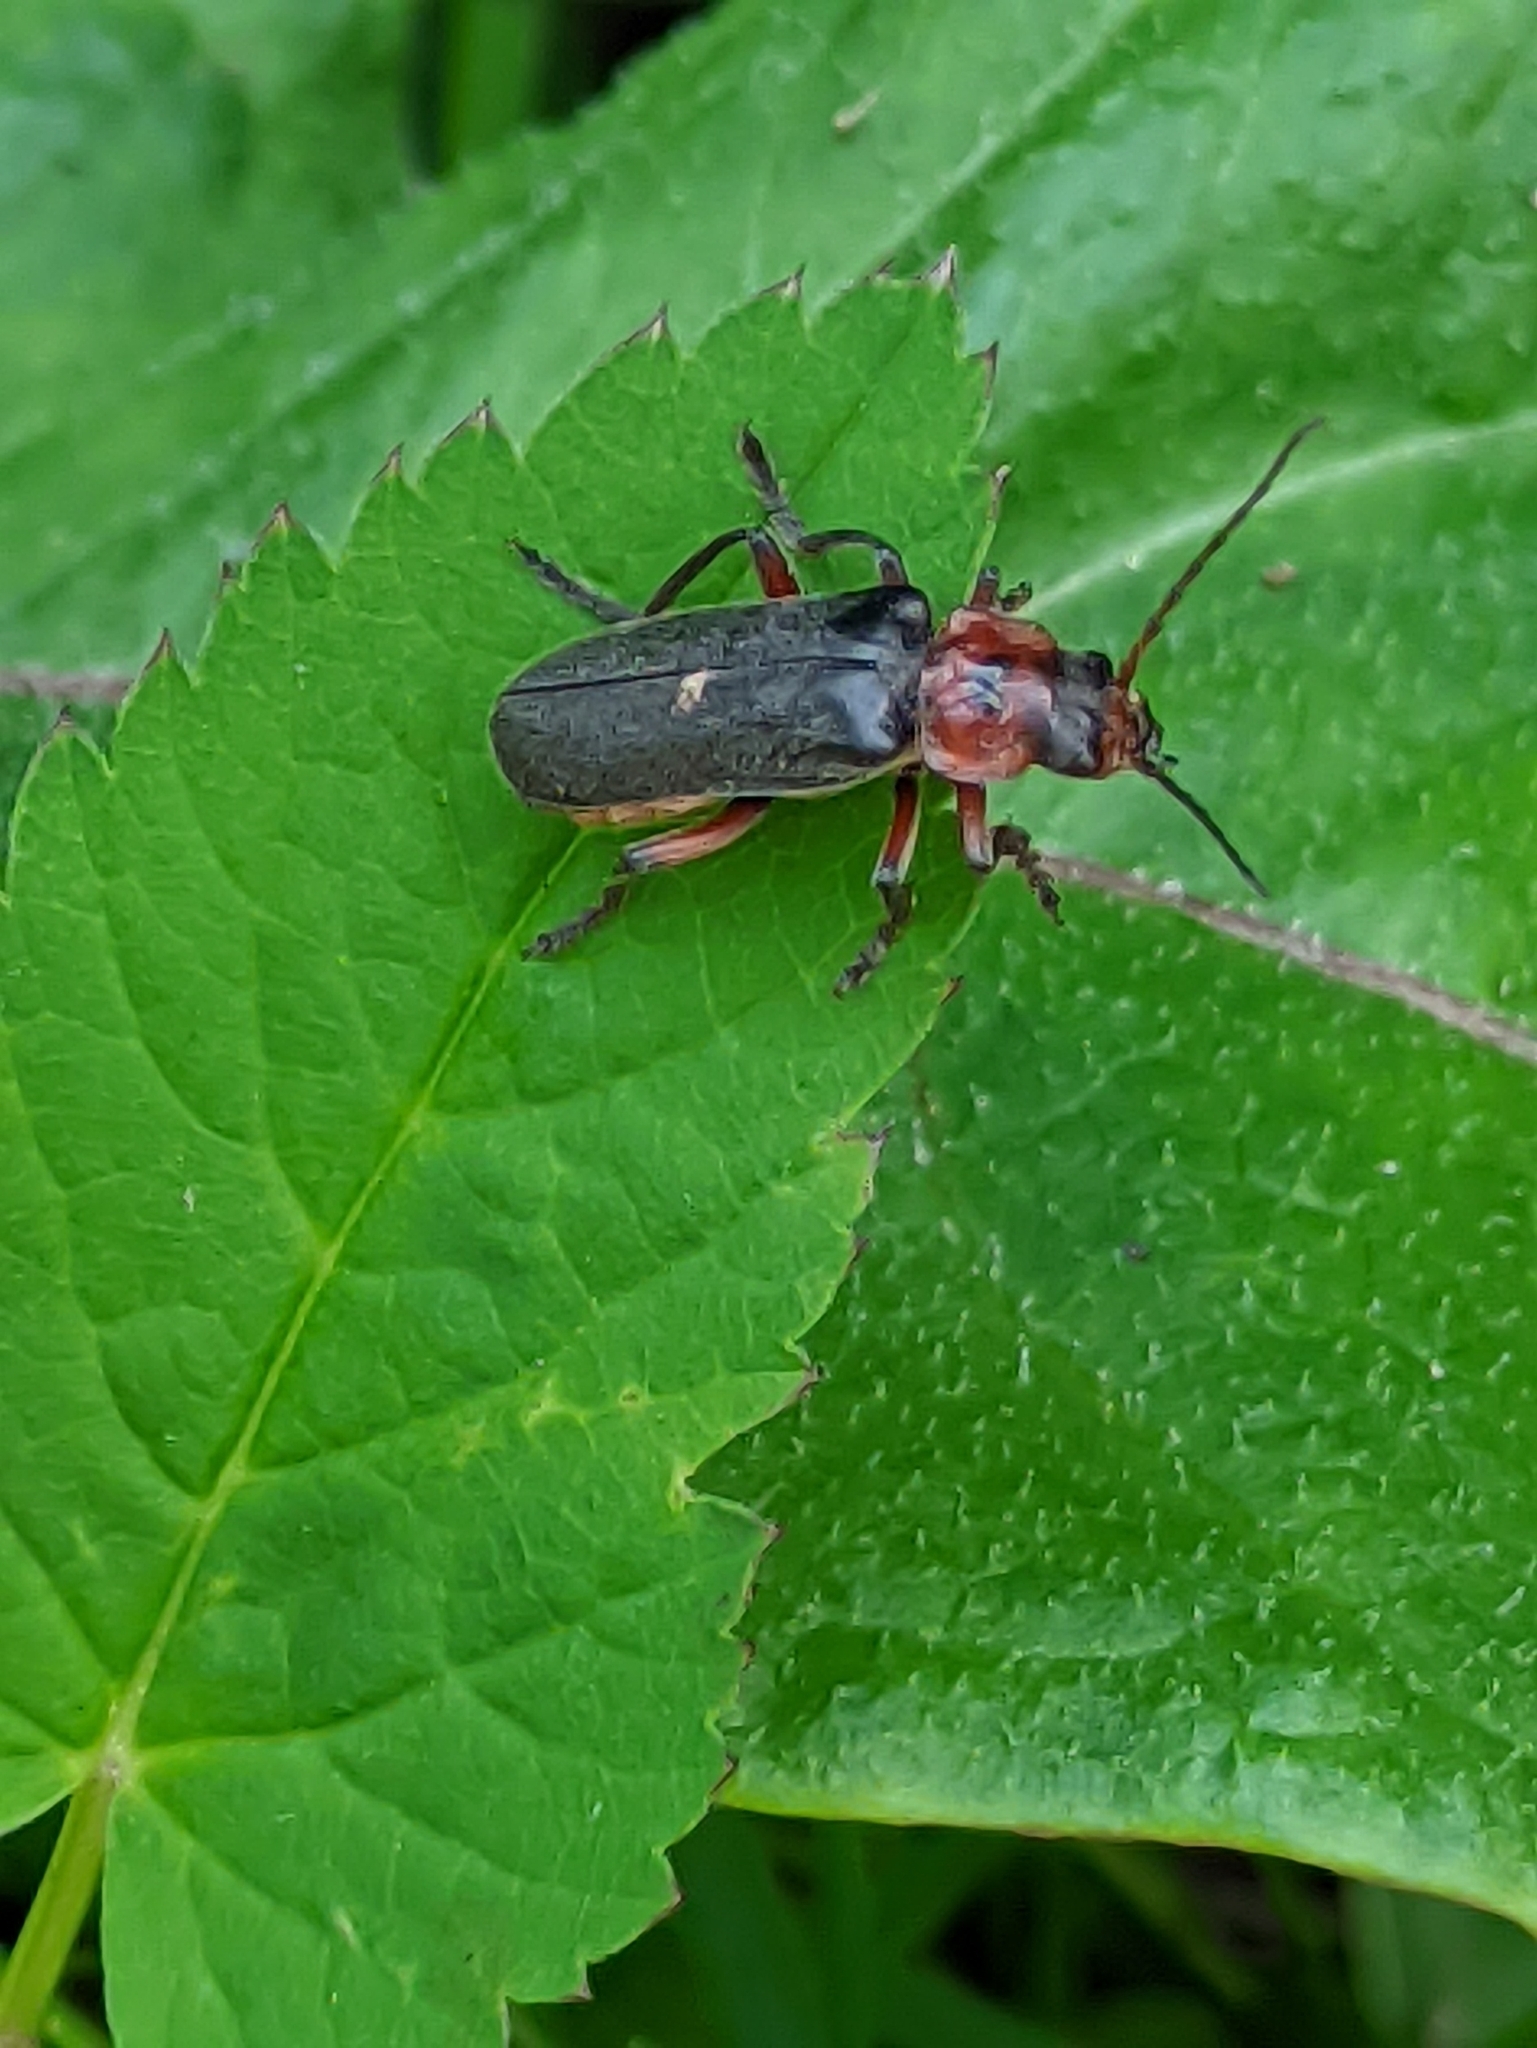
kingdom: Animalia
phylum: Arthropoda
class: Insecta
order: Coleoptera
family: Cantharidae
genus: Cantharis
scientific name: Cantharis rustica
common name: Soldier beetle
